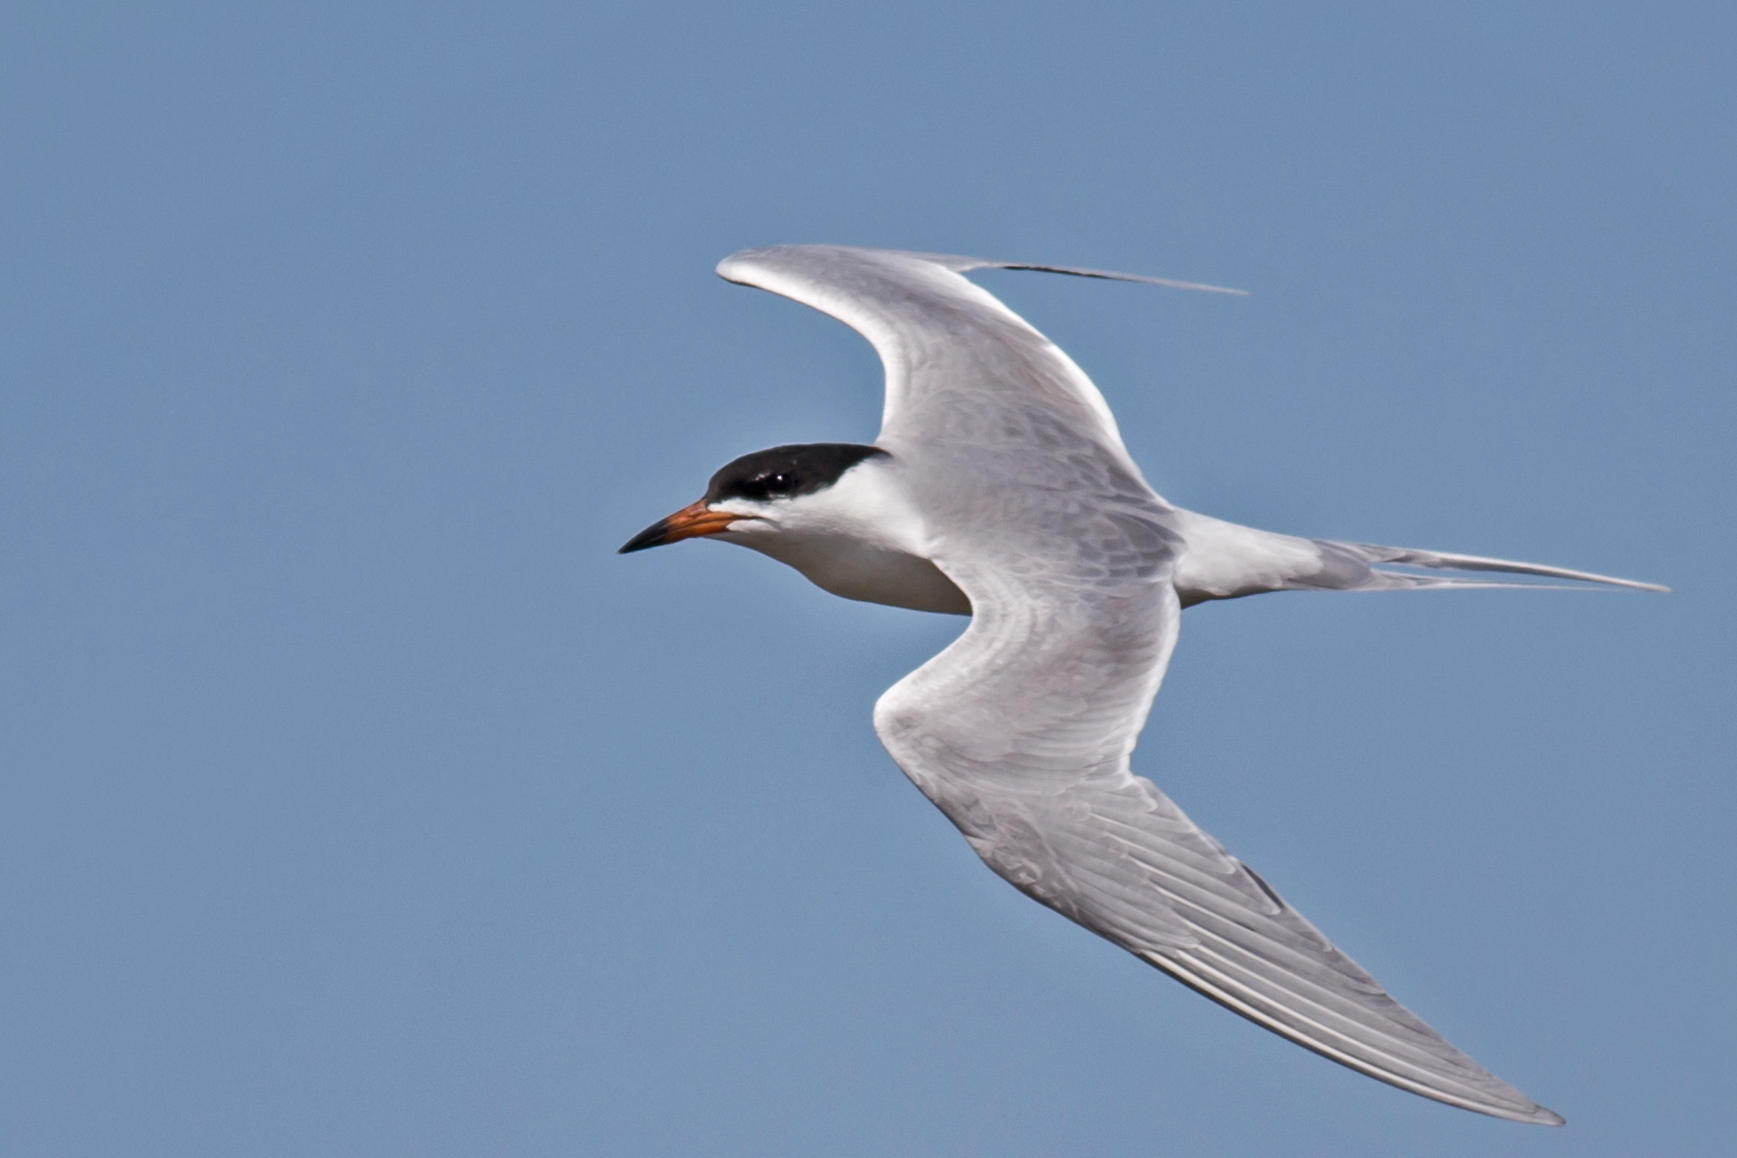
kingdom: Animalia
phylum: Chordata
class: Aves
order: Charadriiformes
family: Laridae
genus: Sterna
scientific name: Sterna forsteri
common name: Forster's tern
